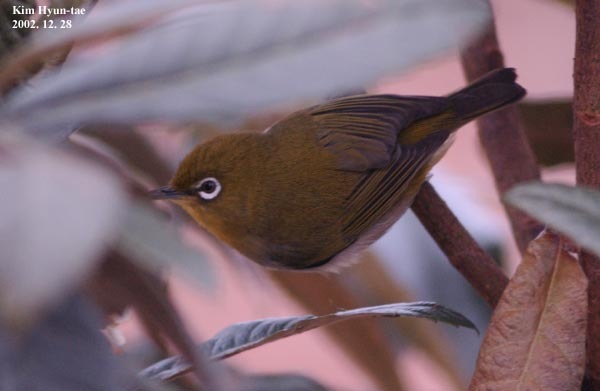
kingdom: Animalia
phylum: Chordata
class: Aves
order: Passeriformes
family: Zosteropidae
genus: Zosterops
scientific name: Zosterops japonicus
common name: Japanese white-eye
